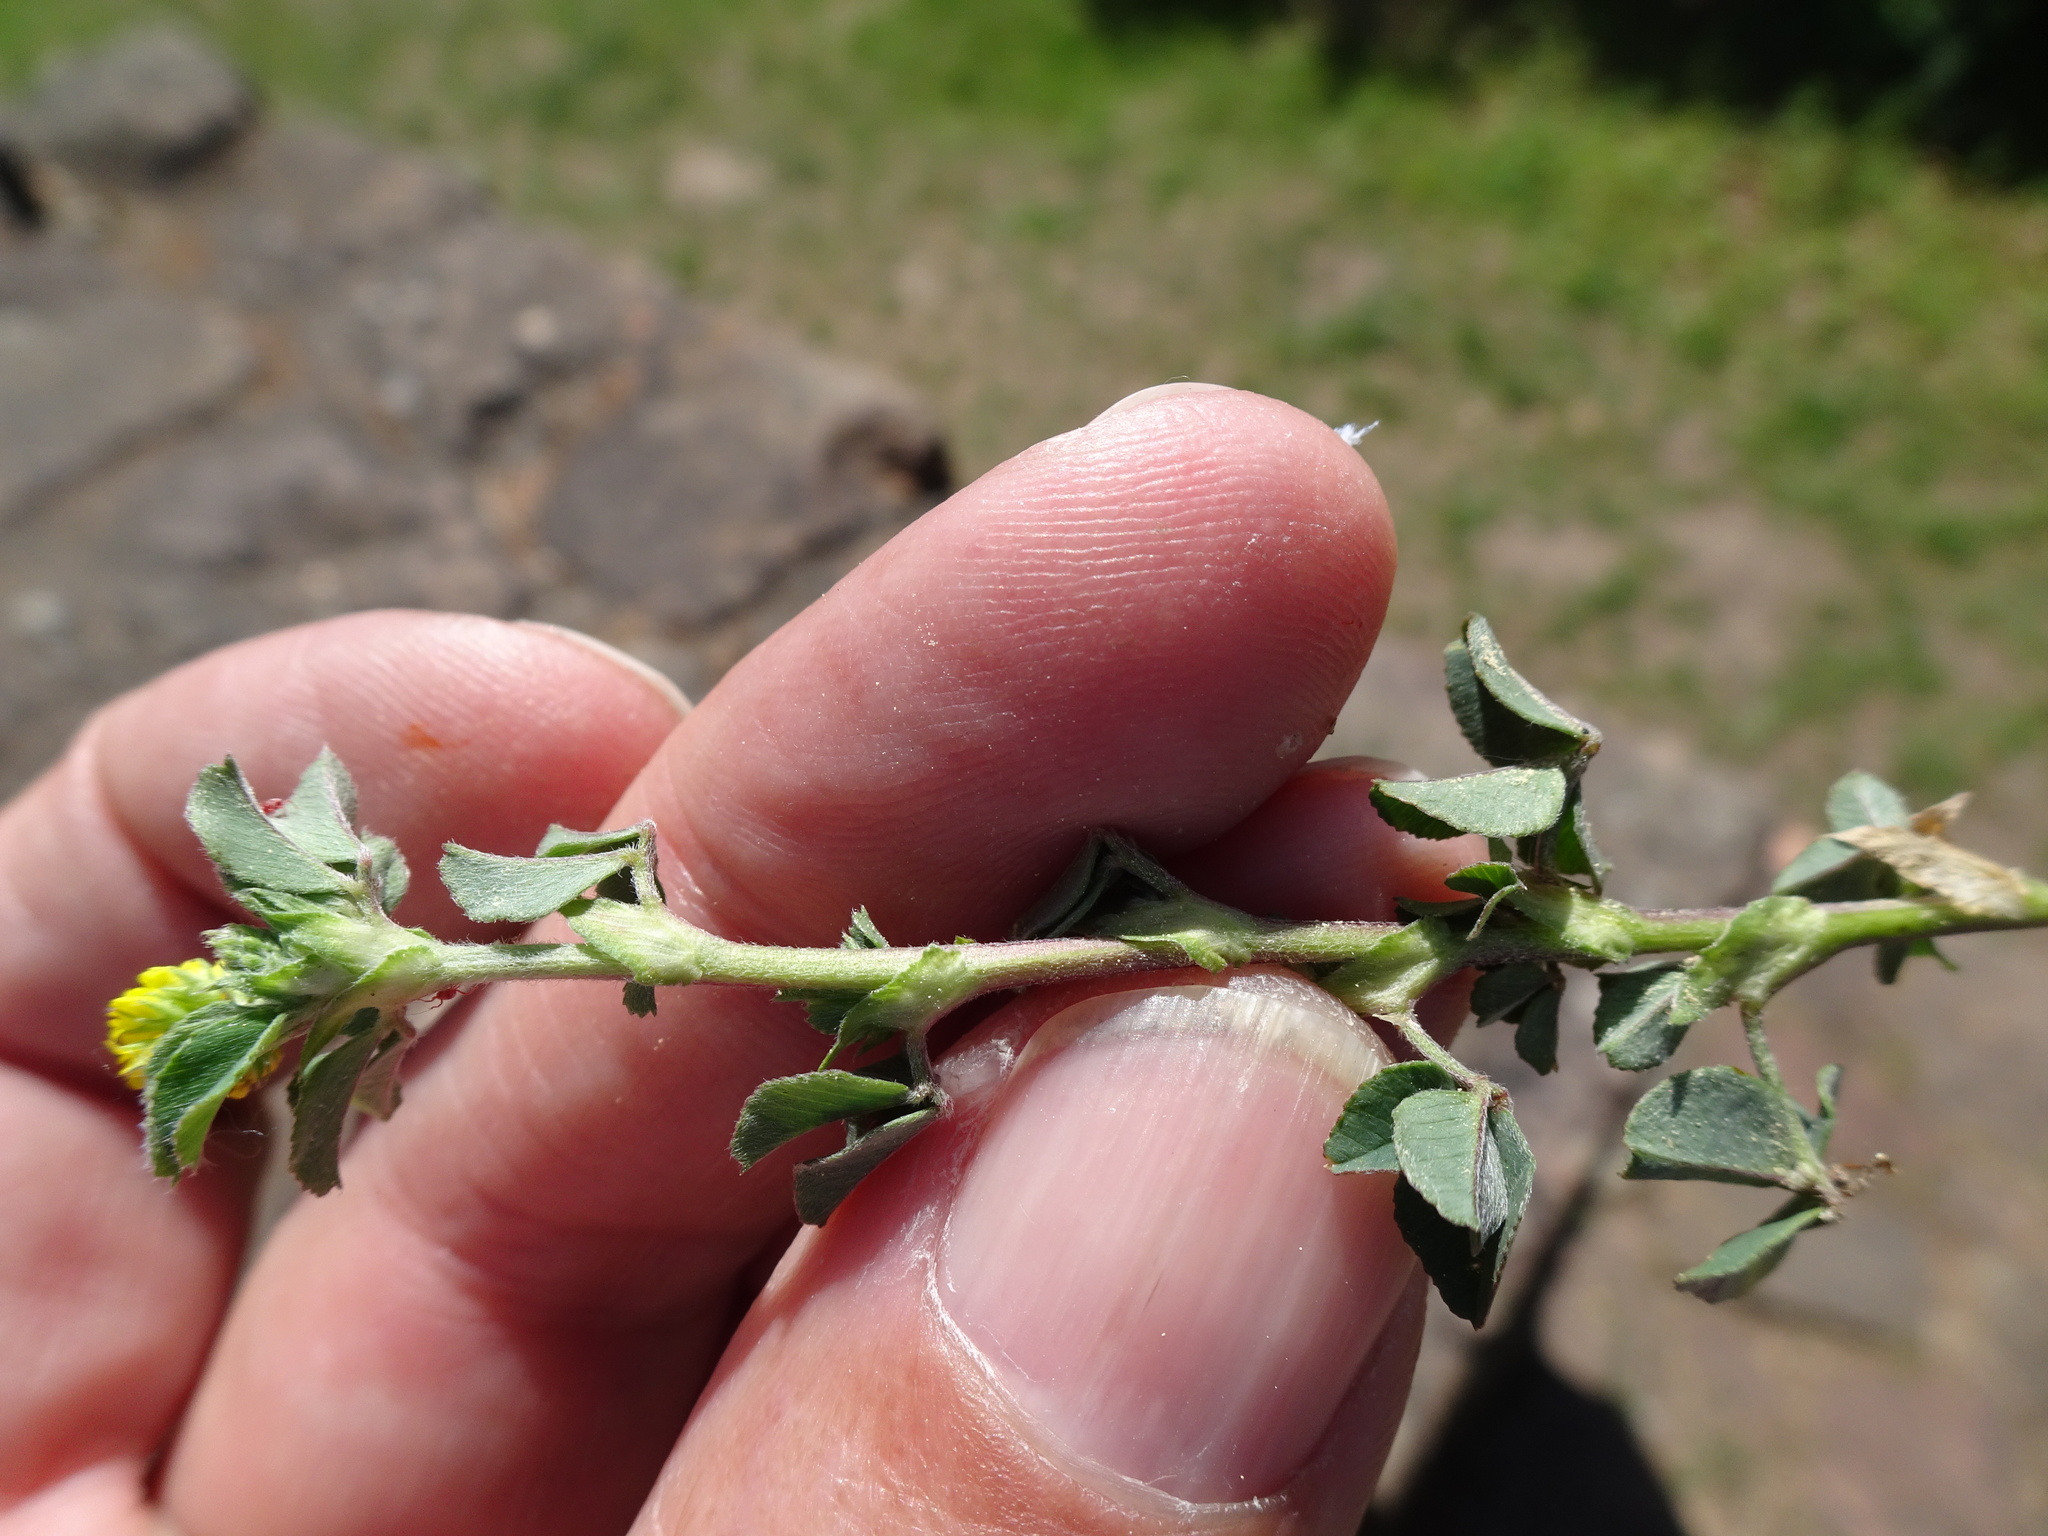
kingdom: Plantae
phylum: Tracheophyta
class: Magnoliopsida
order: Fabales
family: Fabaceae
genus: Medicago
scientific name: Medicago lupulina
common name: Black medick
